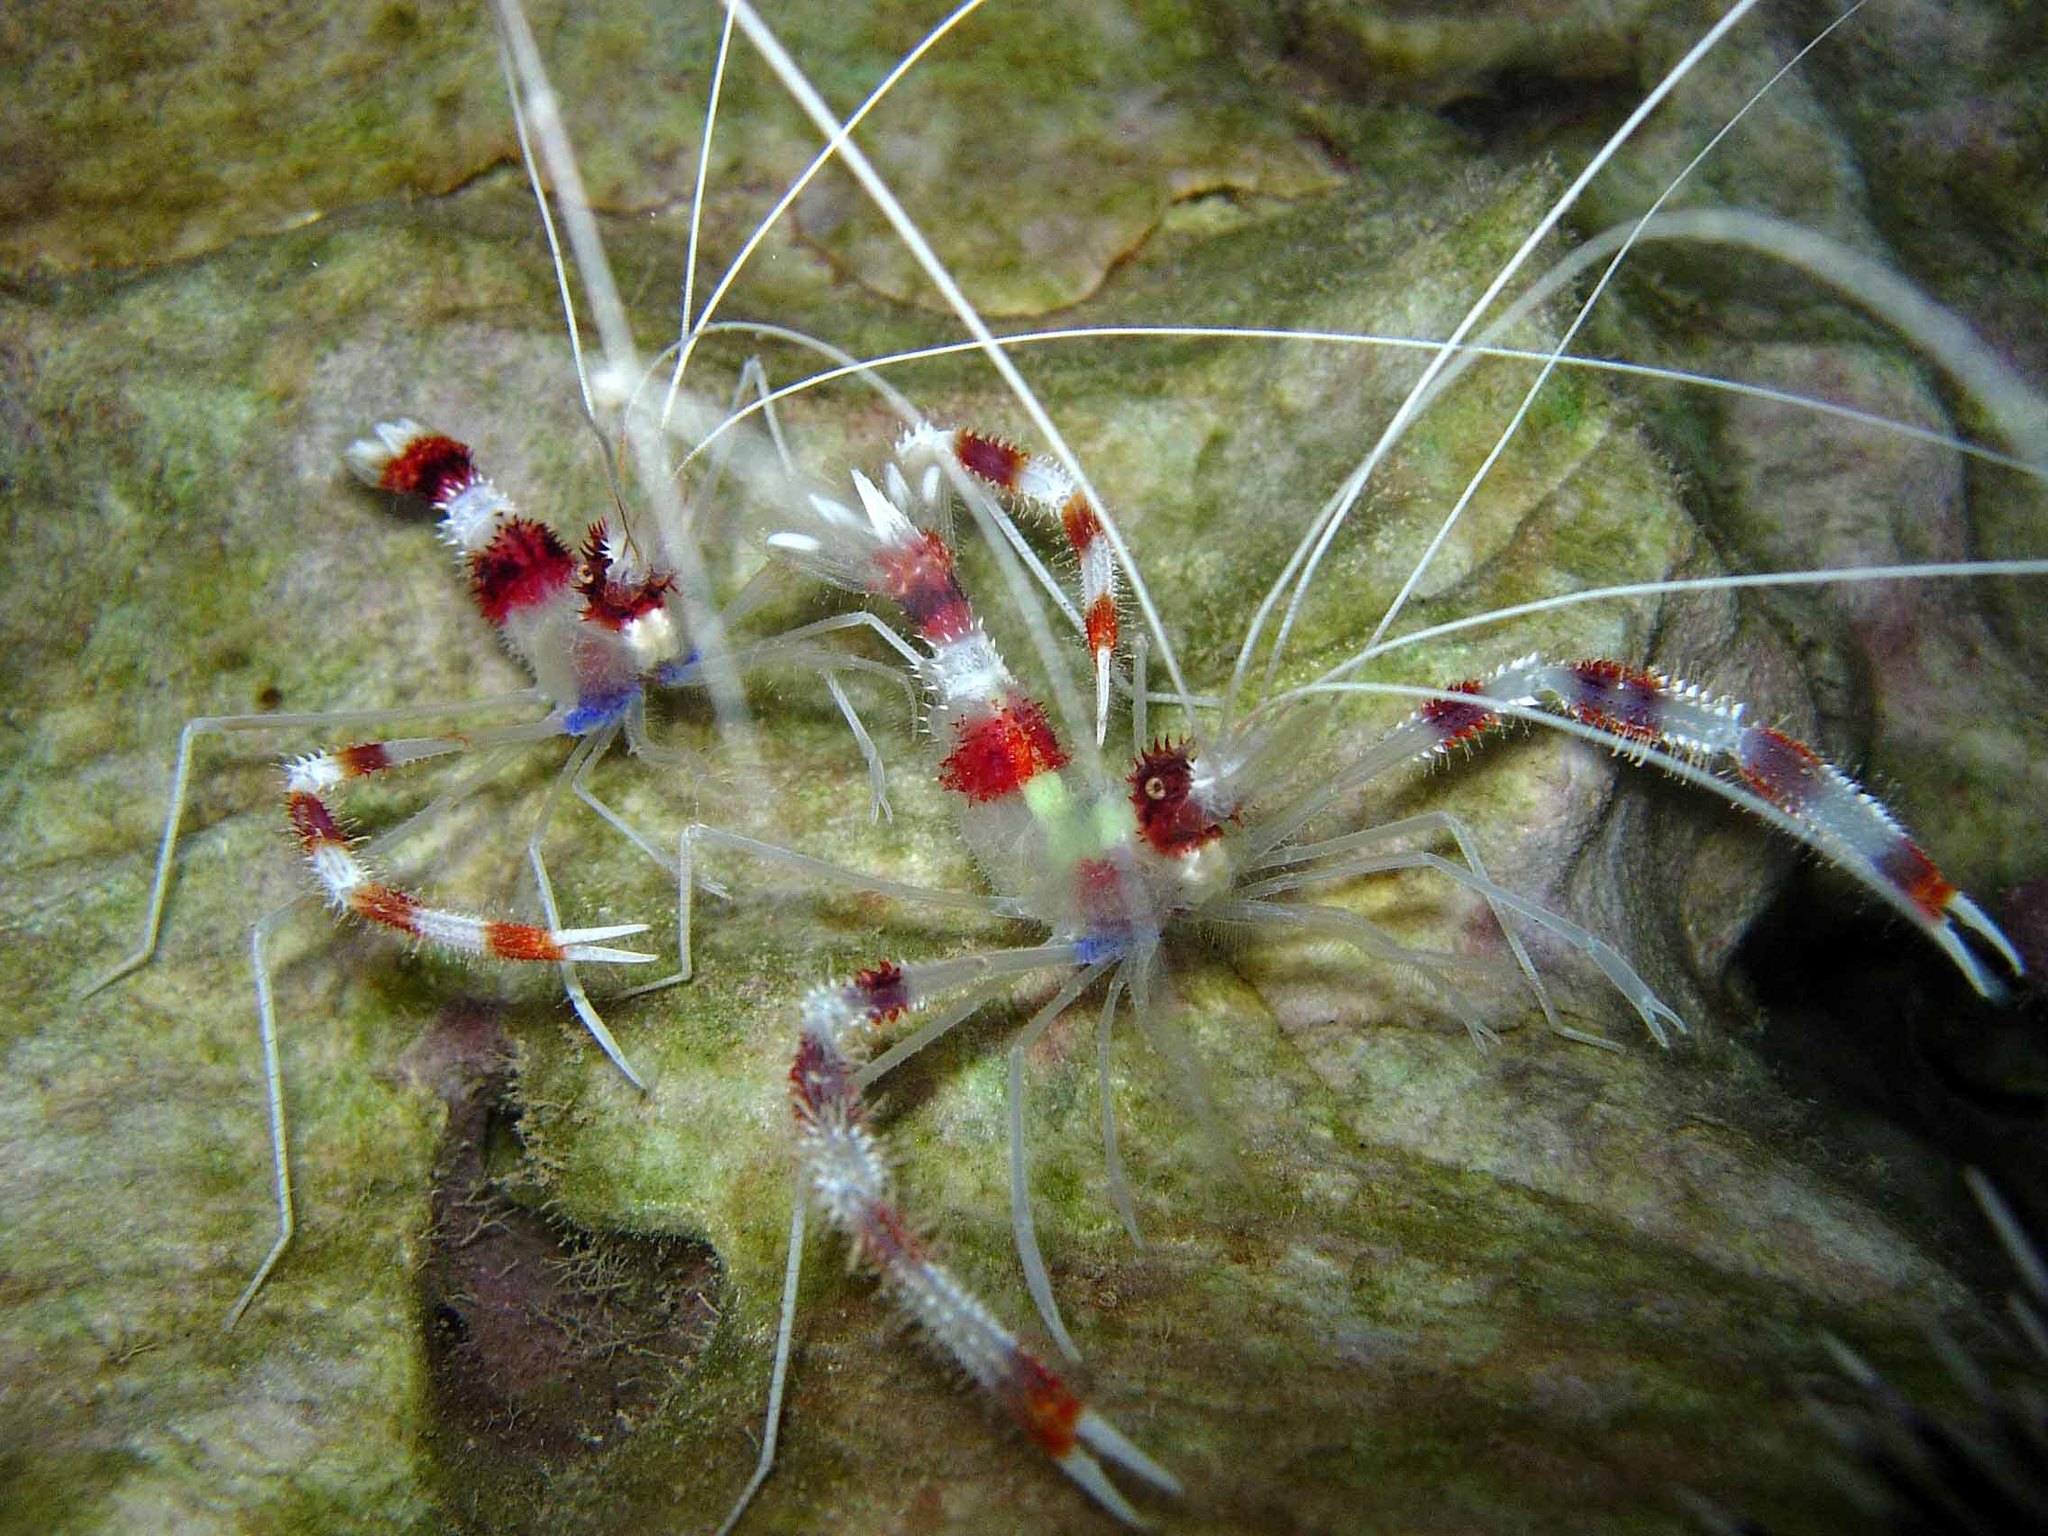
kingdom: Animalia
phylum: Arthropoda
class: Malacostraca
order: Decapoda
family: Stenopodidae
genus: Stenopus
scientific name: Stenopus hispidus
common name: Banded coral shrimp
